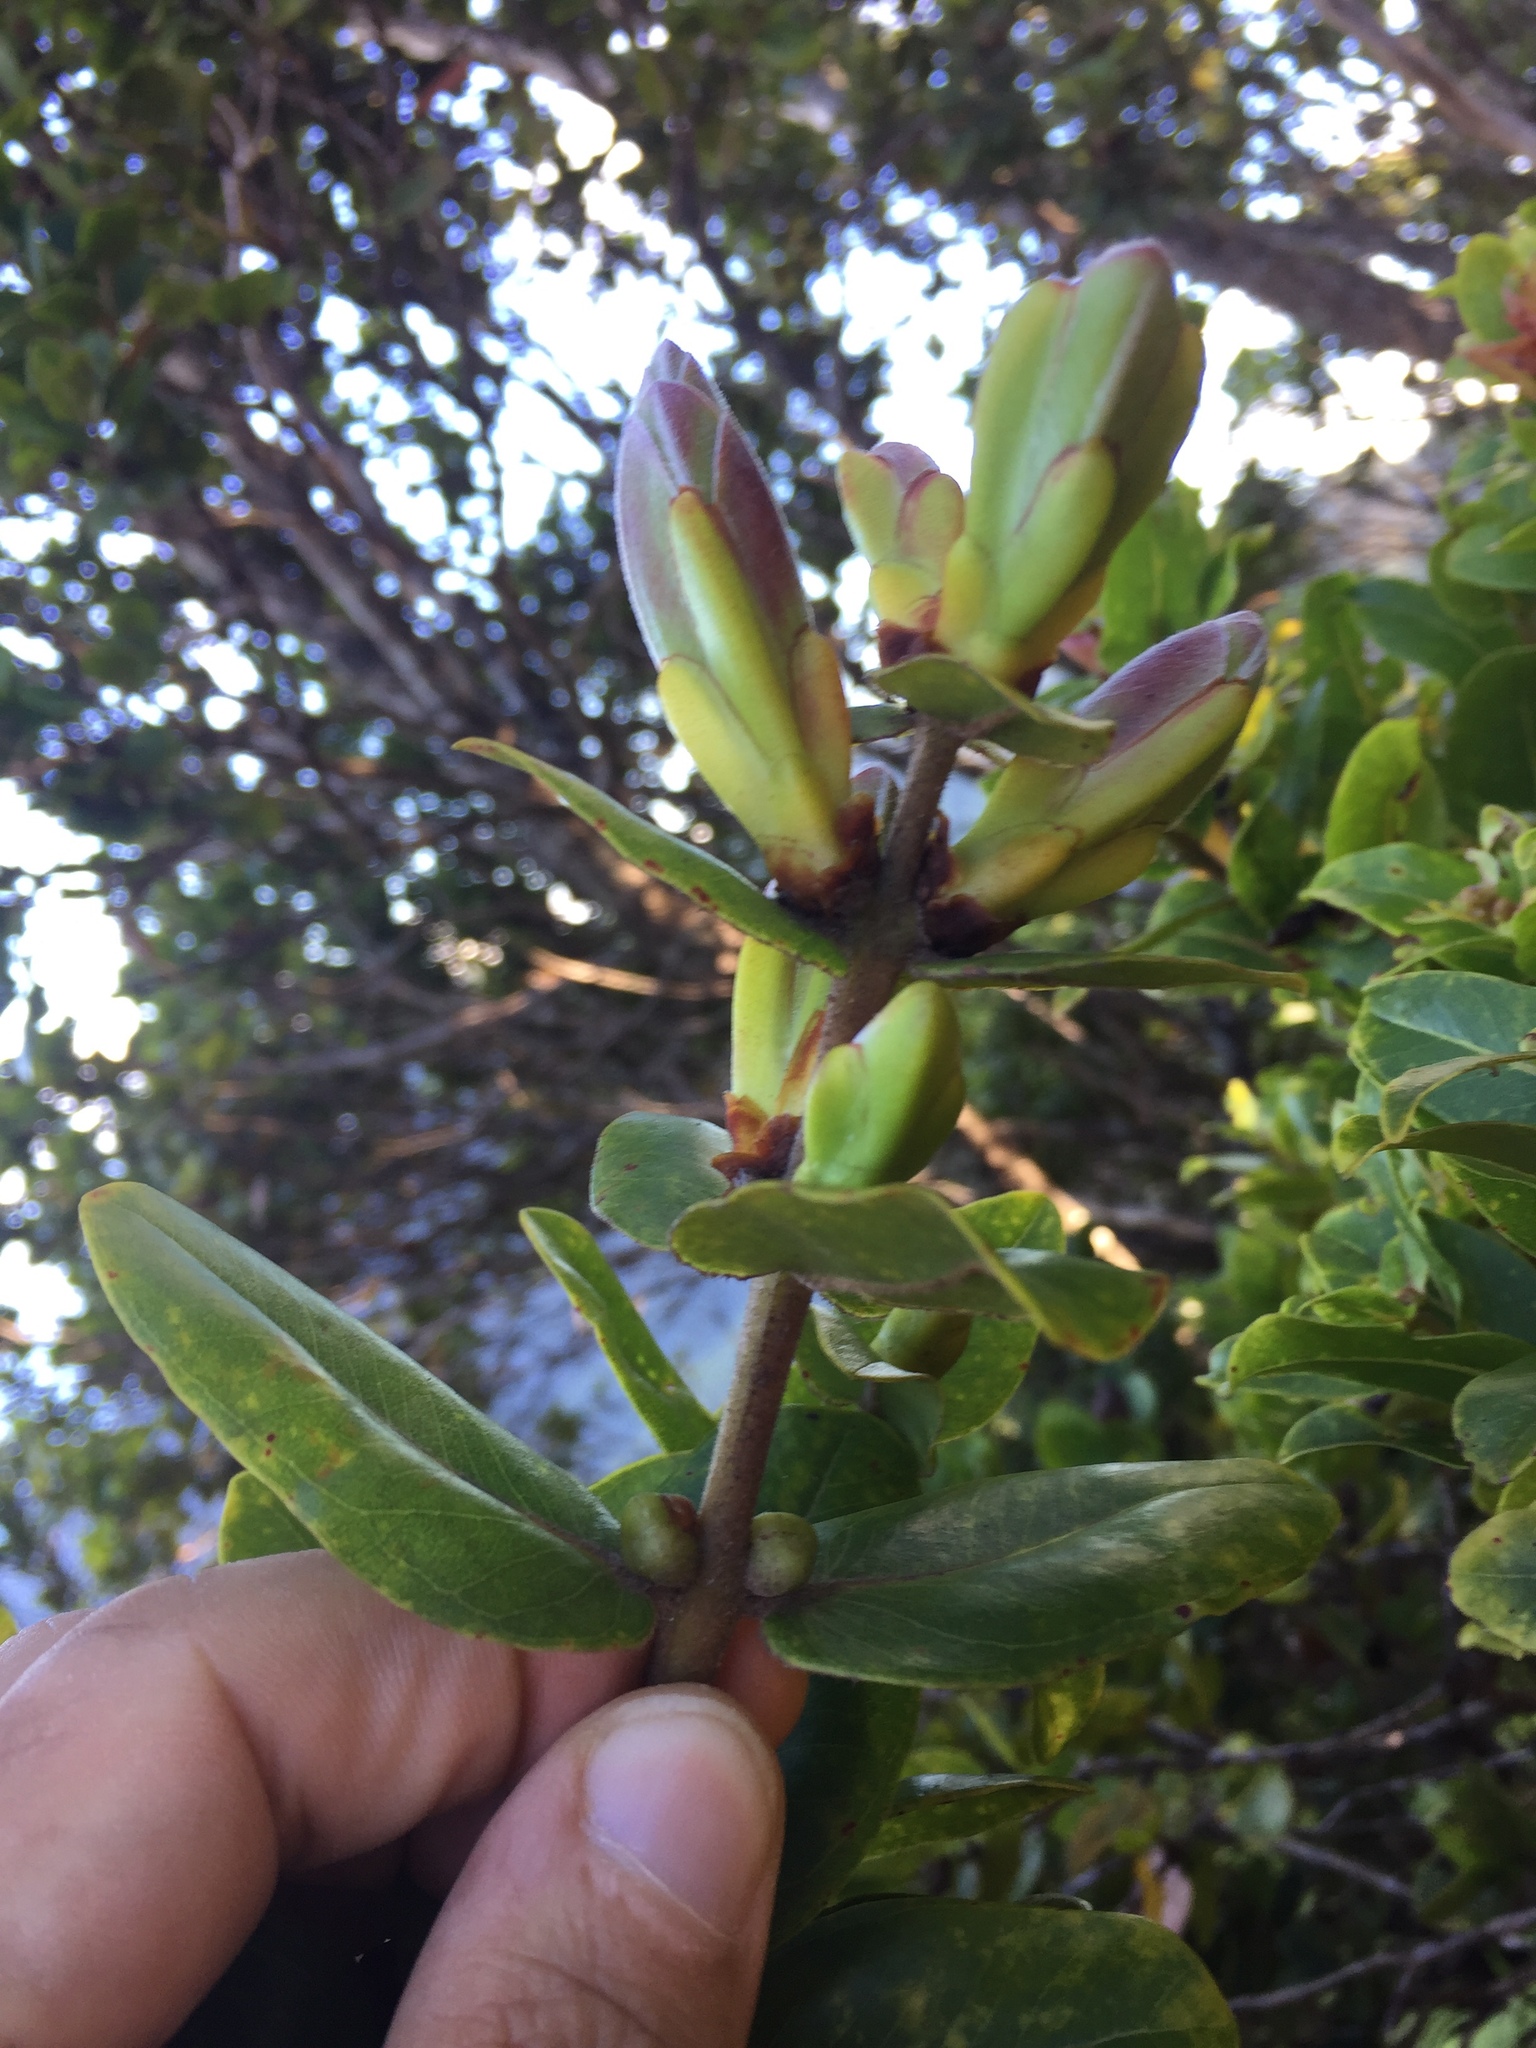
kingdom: Plantae
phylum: Tracheophyta
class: Magnoliopsida
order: Myrtales
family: Myrtaceae
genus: Metrosideros
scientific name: Metrosideros polymorpha
